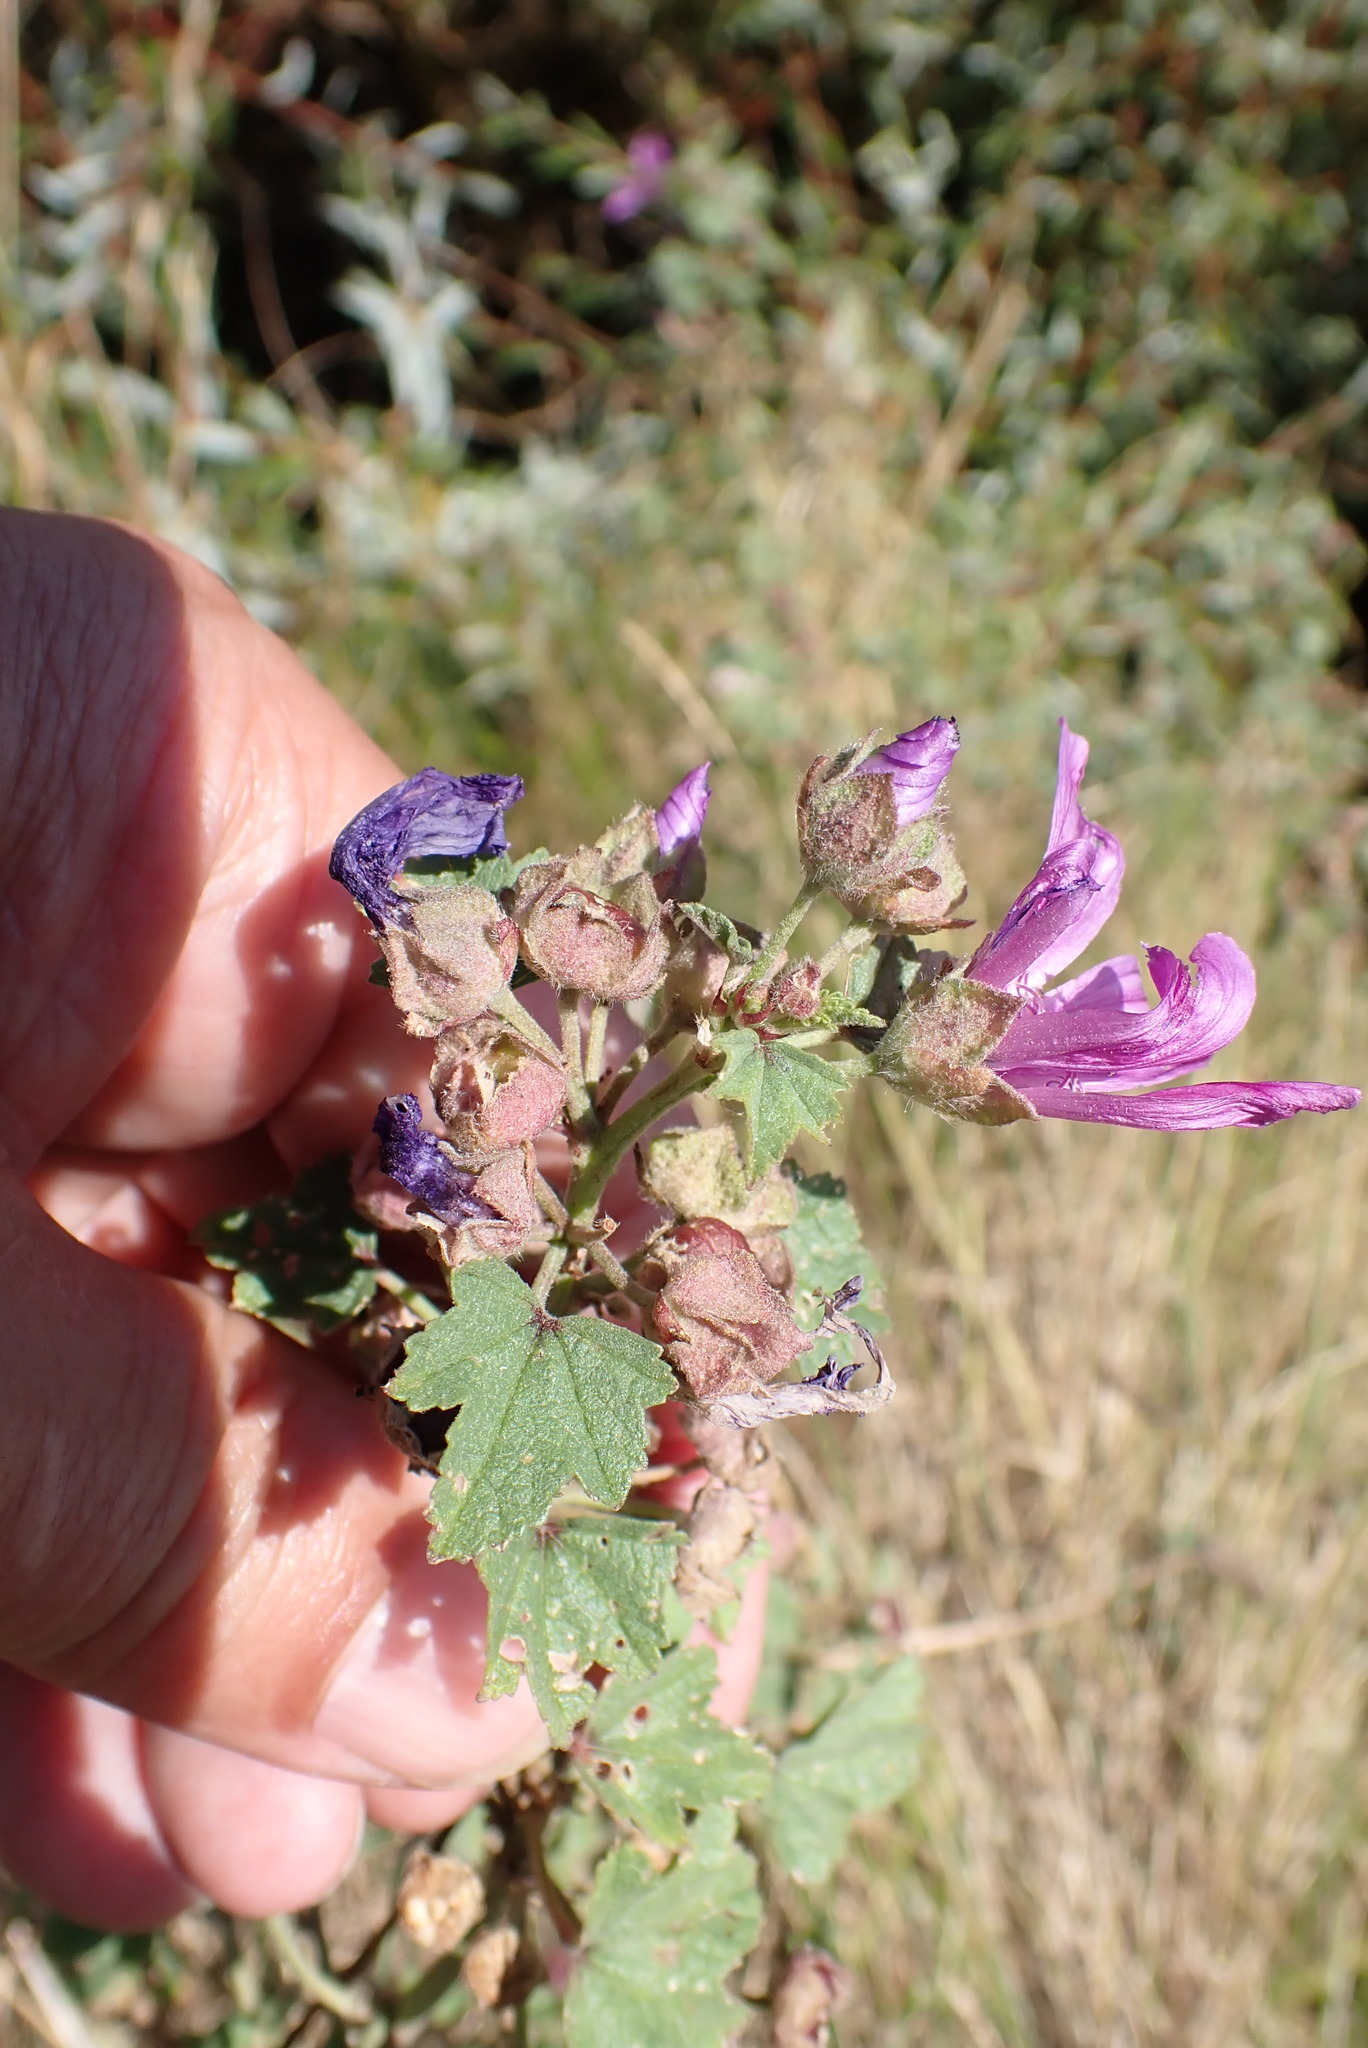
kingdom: Plantae
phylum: Tracheophyta
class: Magnoliopsida
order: Malvales
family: Malvaceae
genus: Malva
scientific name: Malva sylvestris
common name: Common mallow
